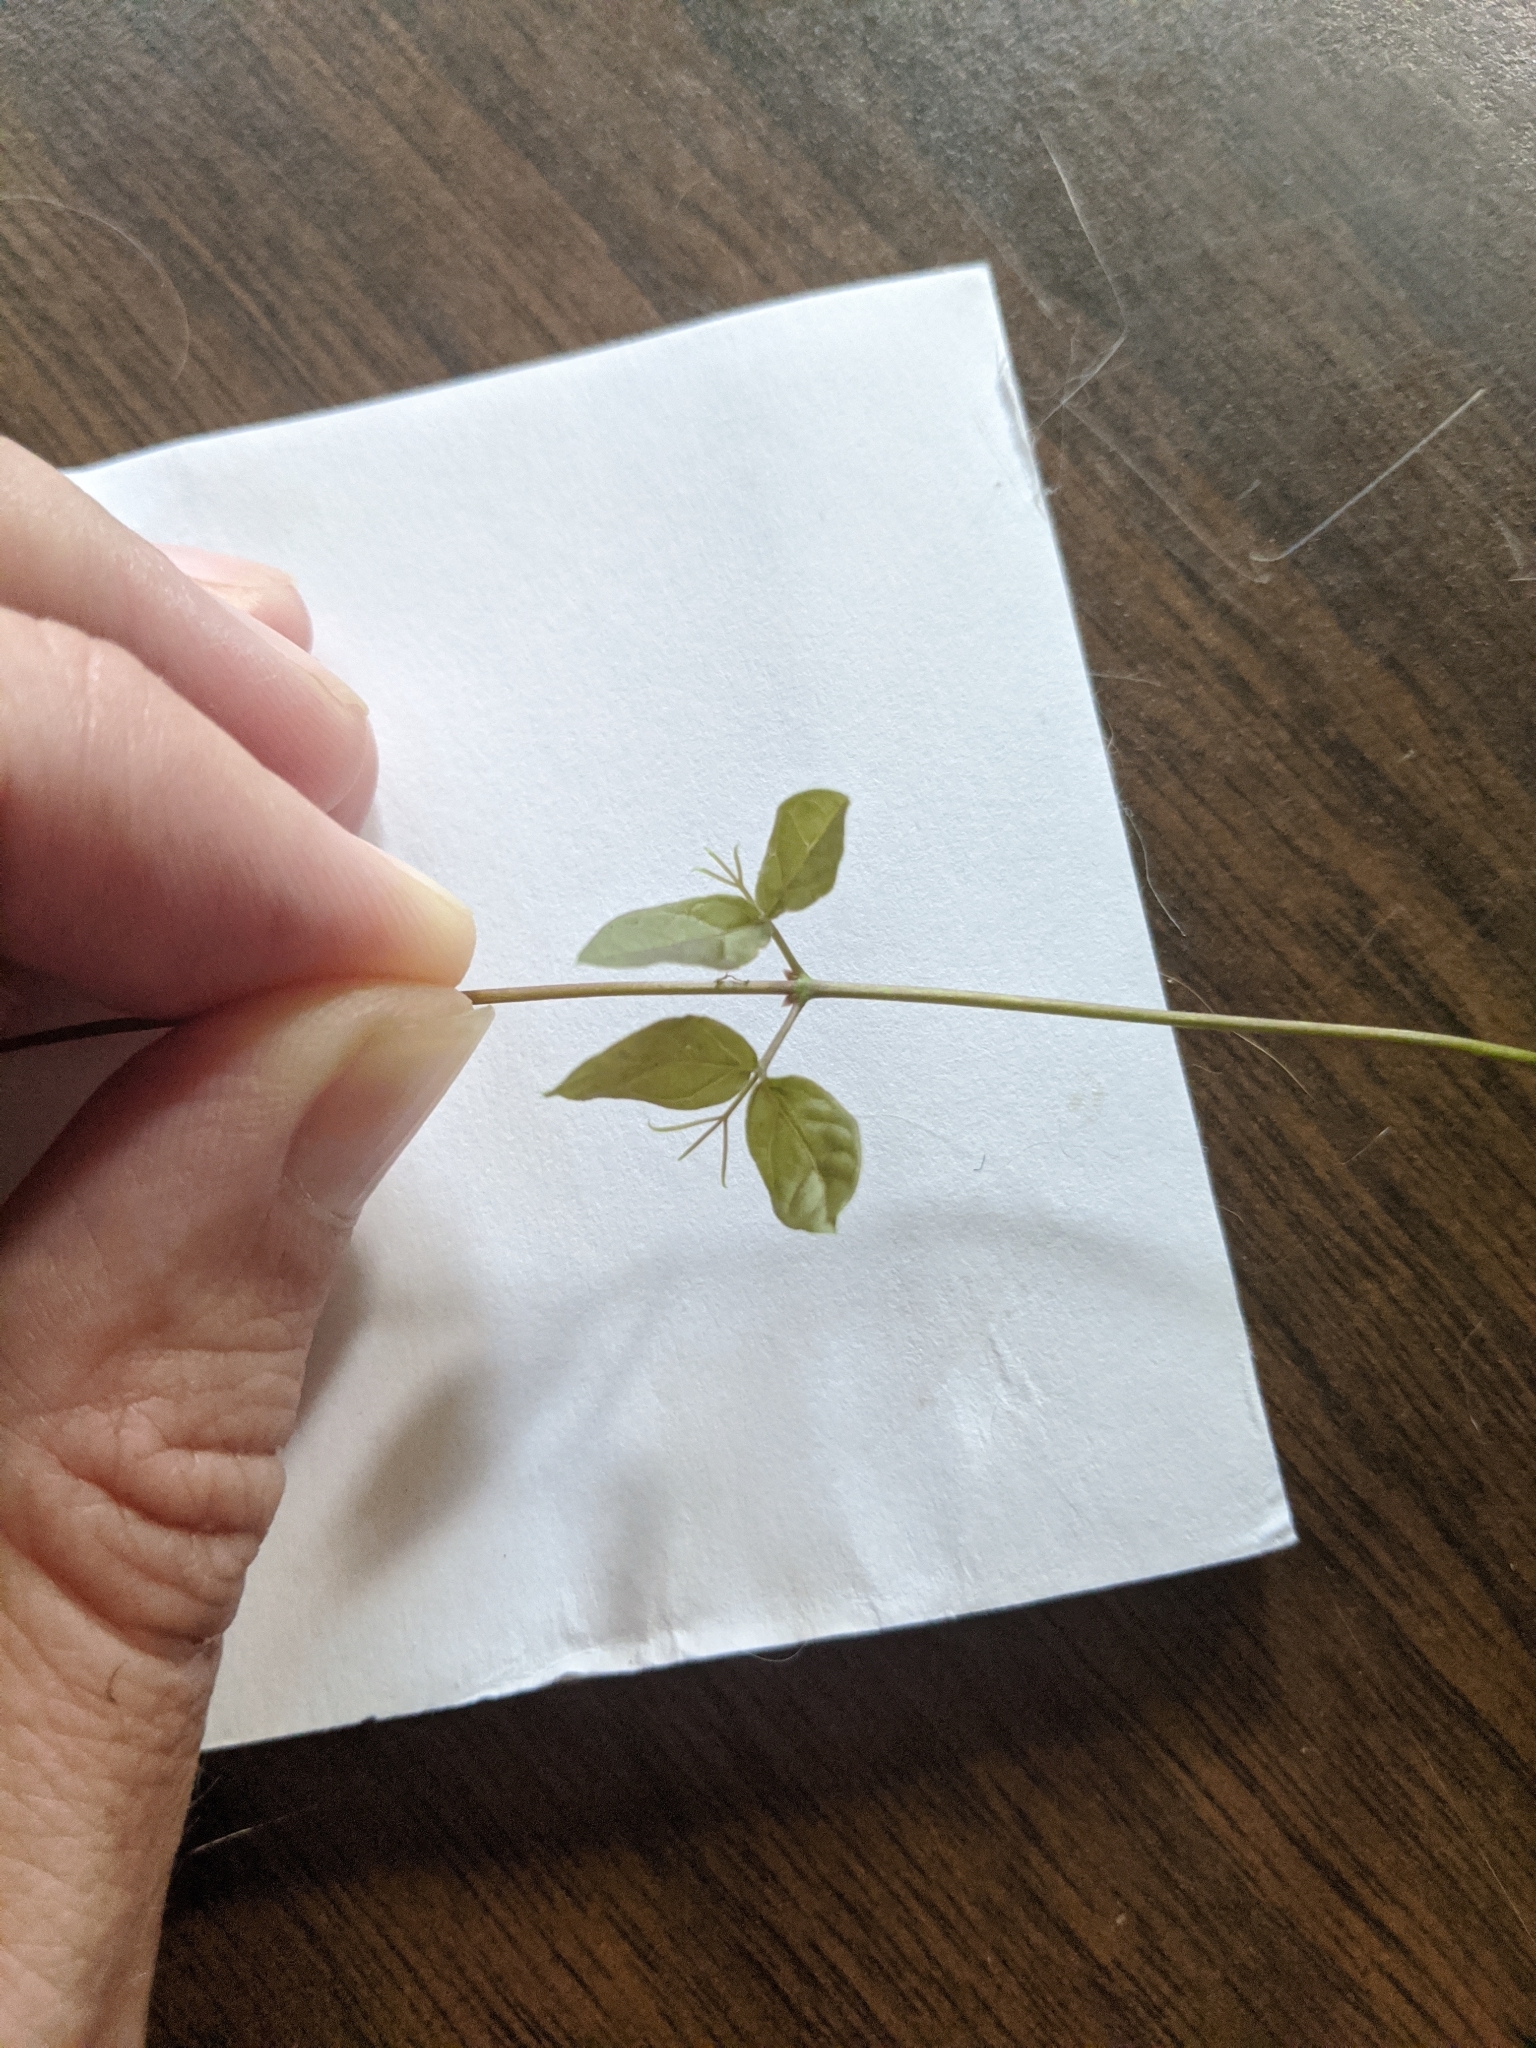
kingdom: Plantae
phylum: Tracheophyta
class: Magnoliopsida
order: Lamiales
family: Bignoniaceae
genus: Dolichandra
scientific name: Dolichandra unguis-cati
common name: Catclaw vine
